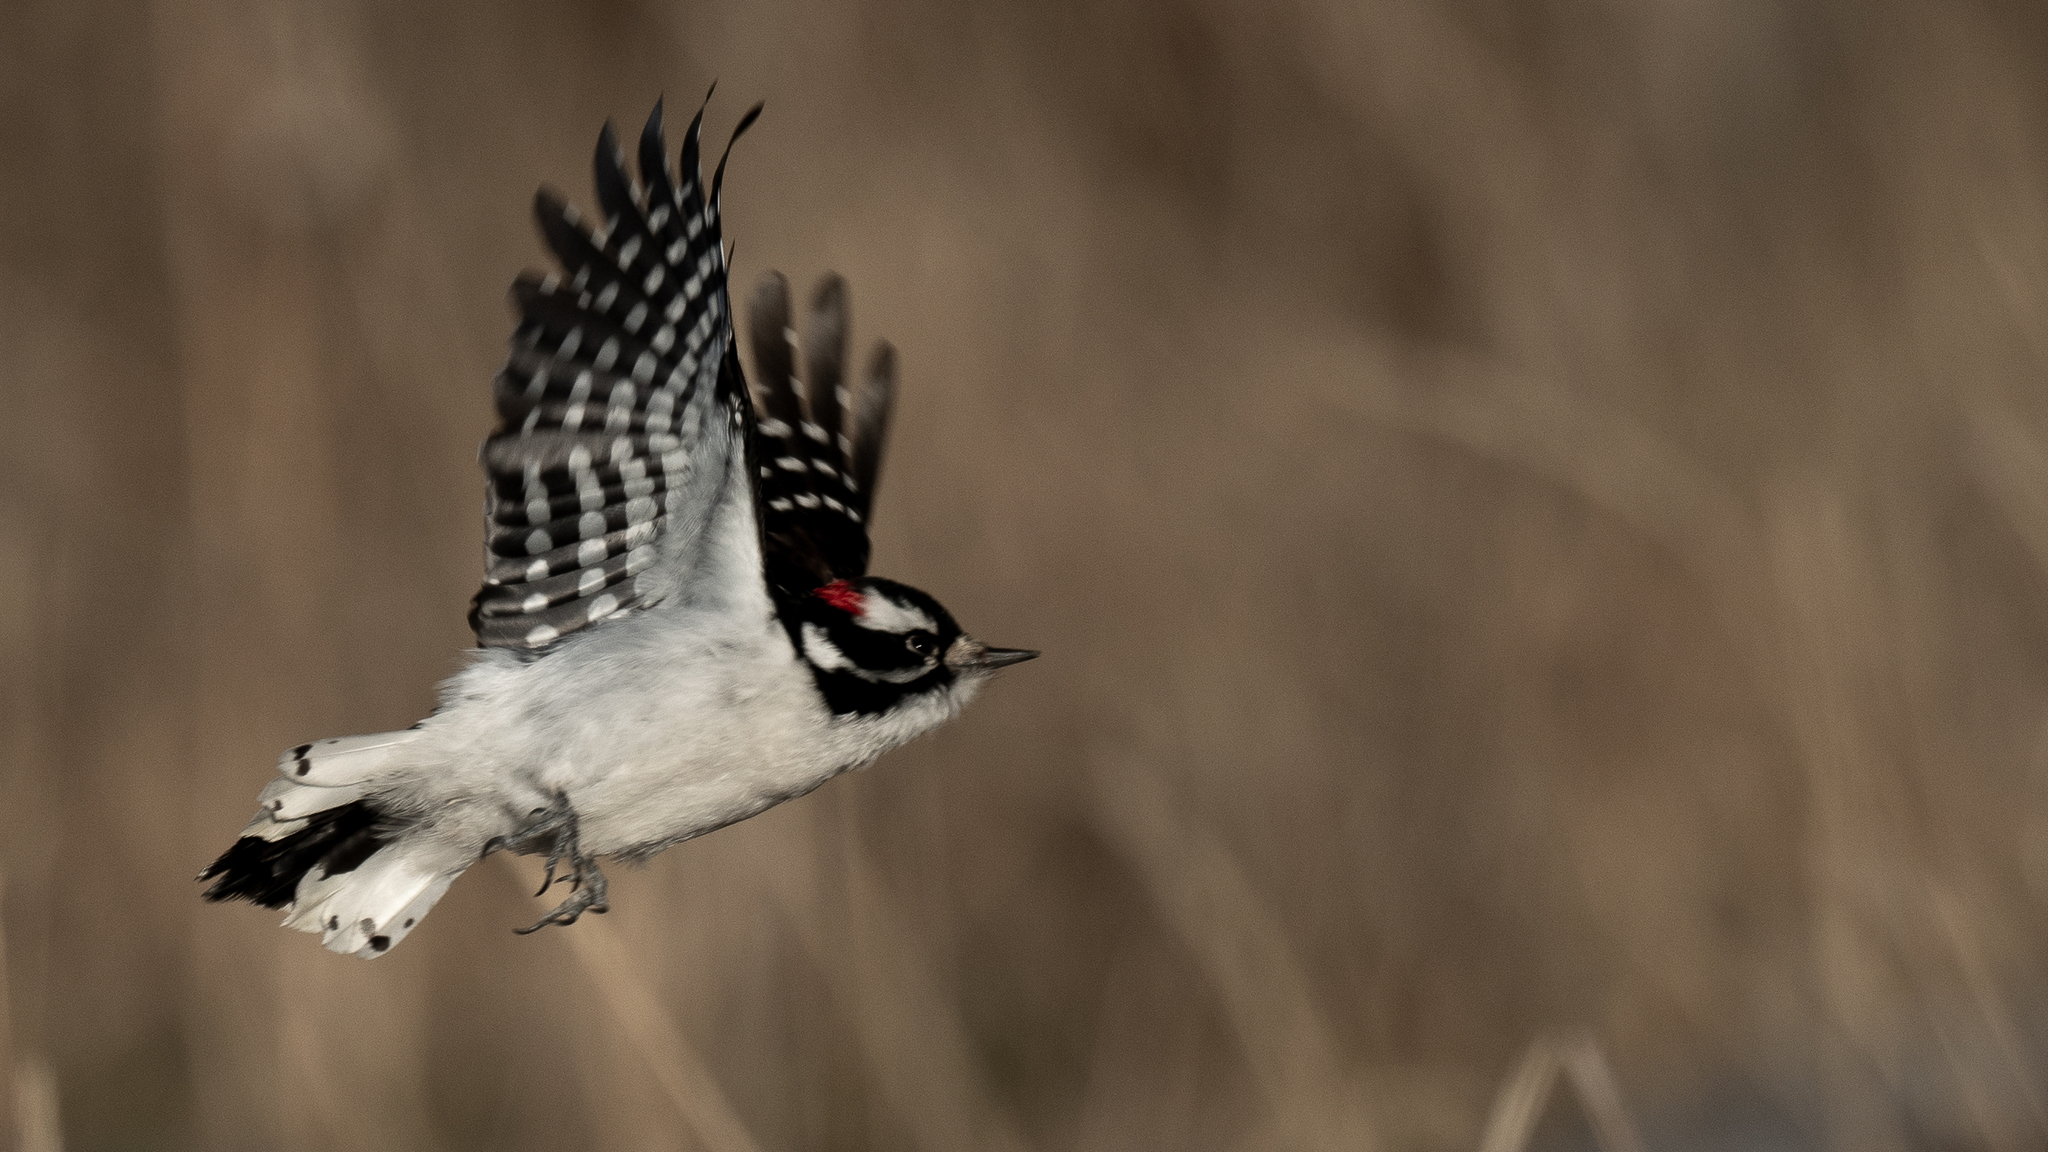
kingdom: Animalia
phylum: Chordata
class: Aves
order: Piciformes
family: Picidae
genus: Dryobates
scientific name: Dryobates pubescens
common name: Downy woodpecker
